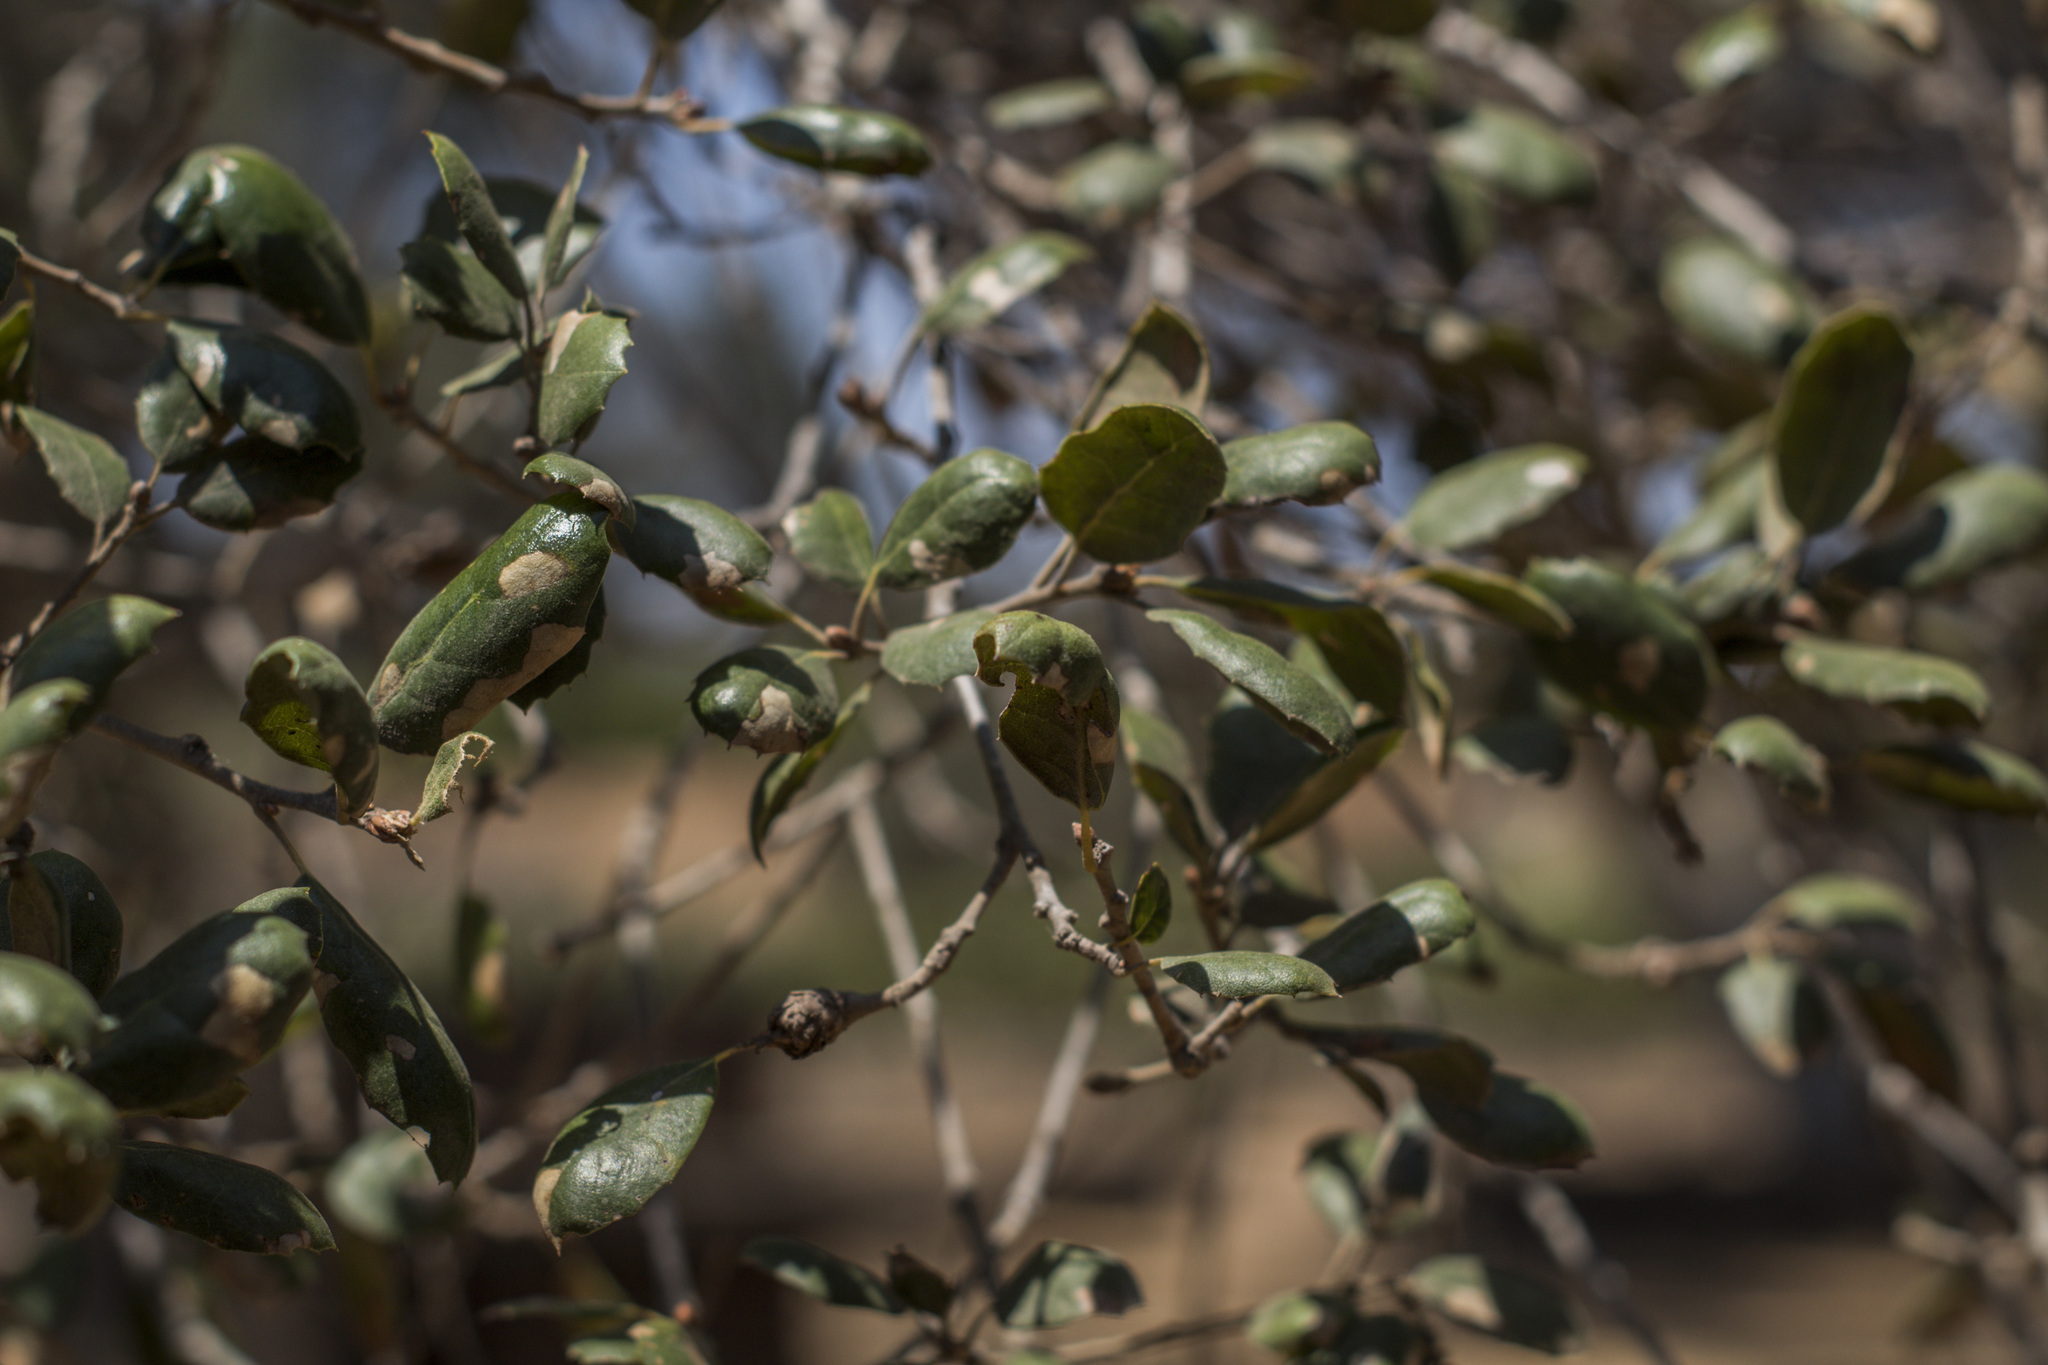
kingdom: Animalia
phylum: Arthropoda
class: Insecta
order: Hymenoptera
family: Cynipidae
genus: Andricus
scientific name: Andricus quercuscalifornicus
